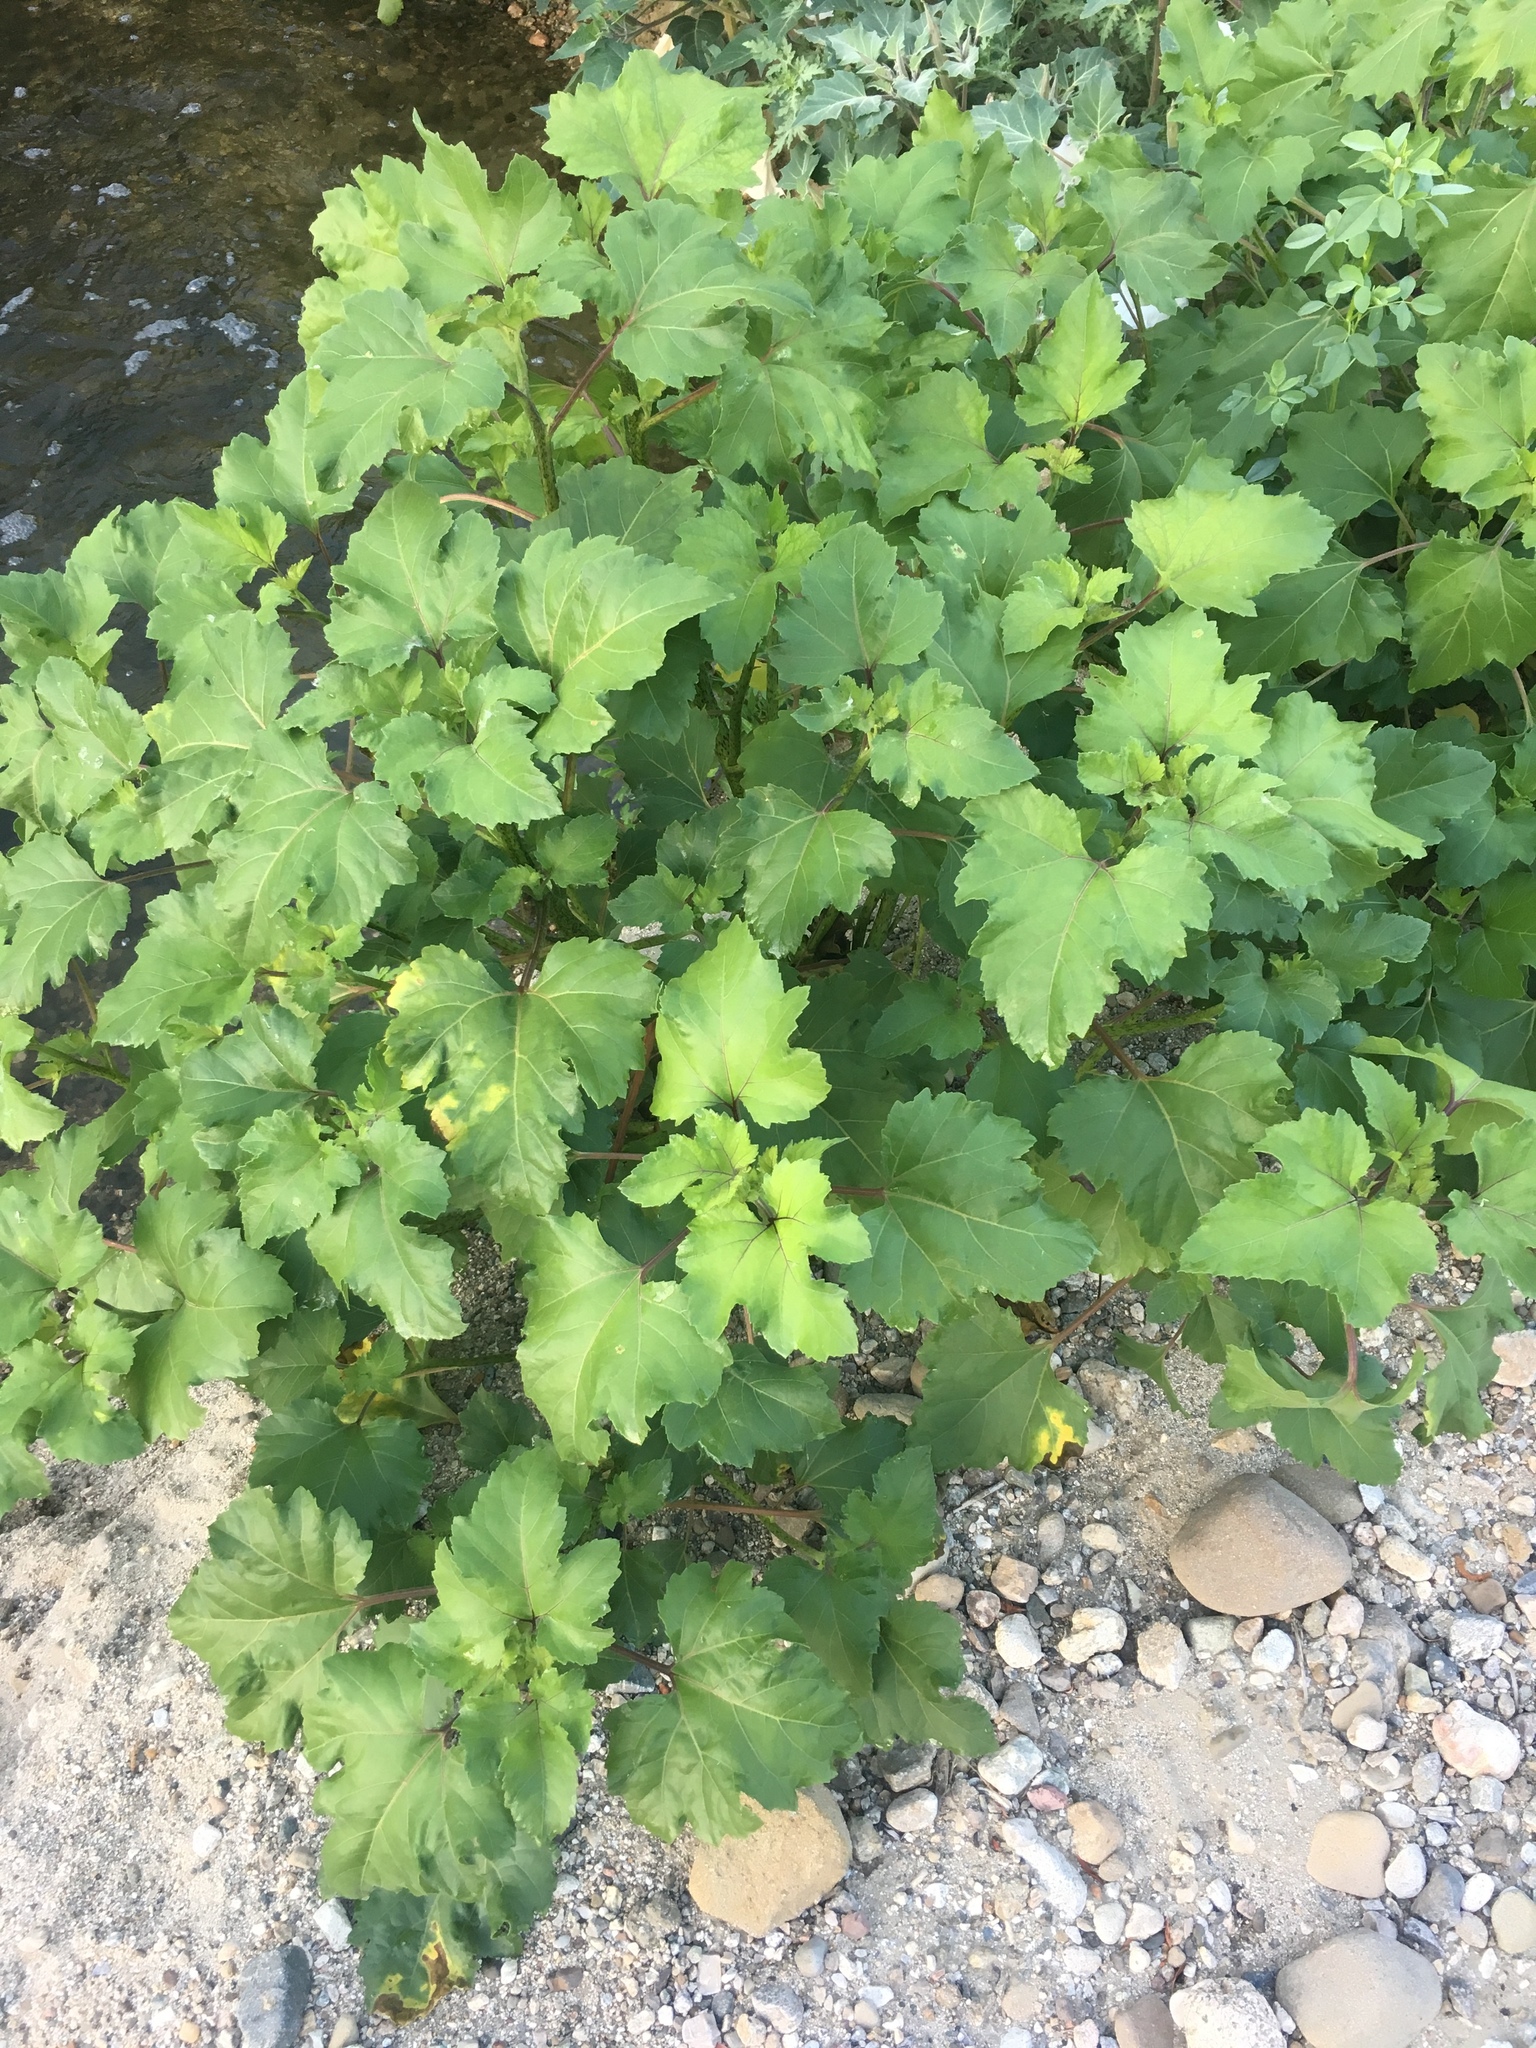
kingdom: Plantae
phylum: Tracheophyta
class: Magnoliopsida
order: Asterales
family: Asteraceae
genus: Xanthium
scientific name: Xanthium strumarium
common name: Rough cocklebur
